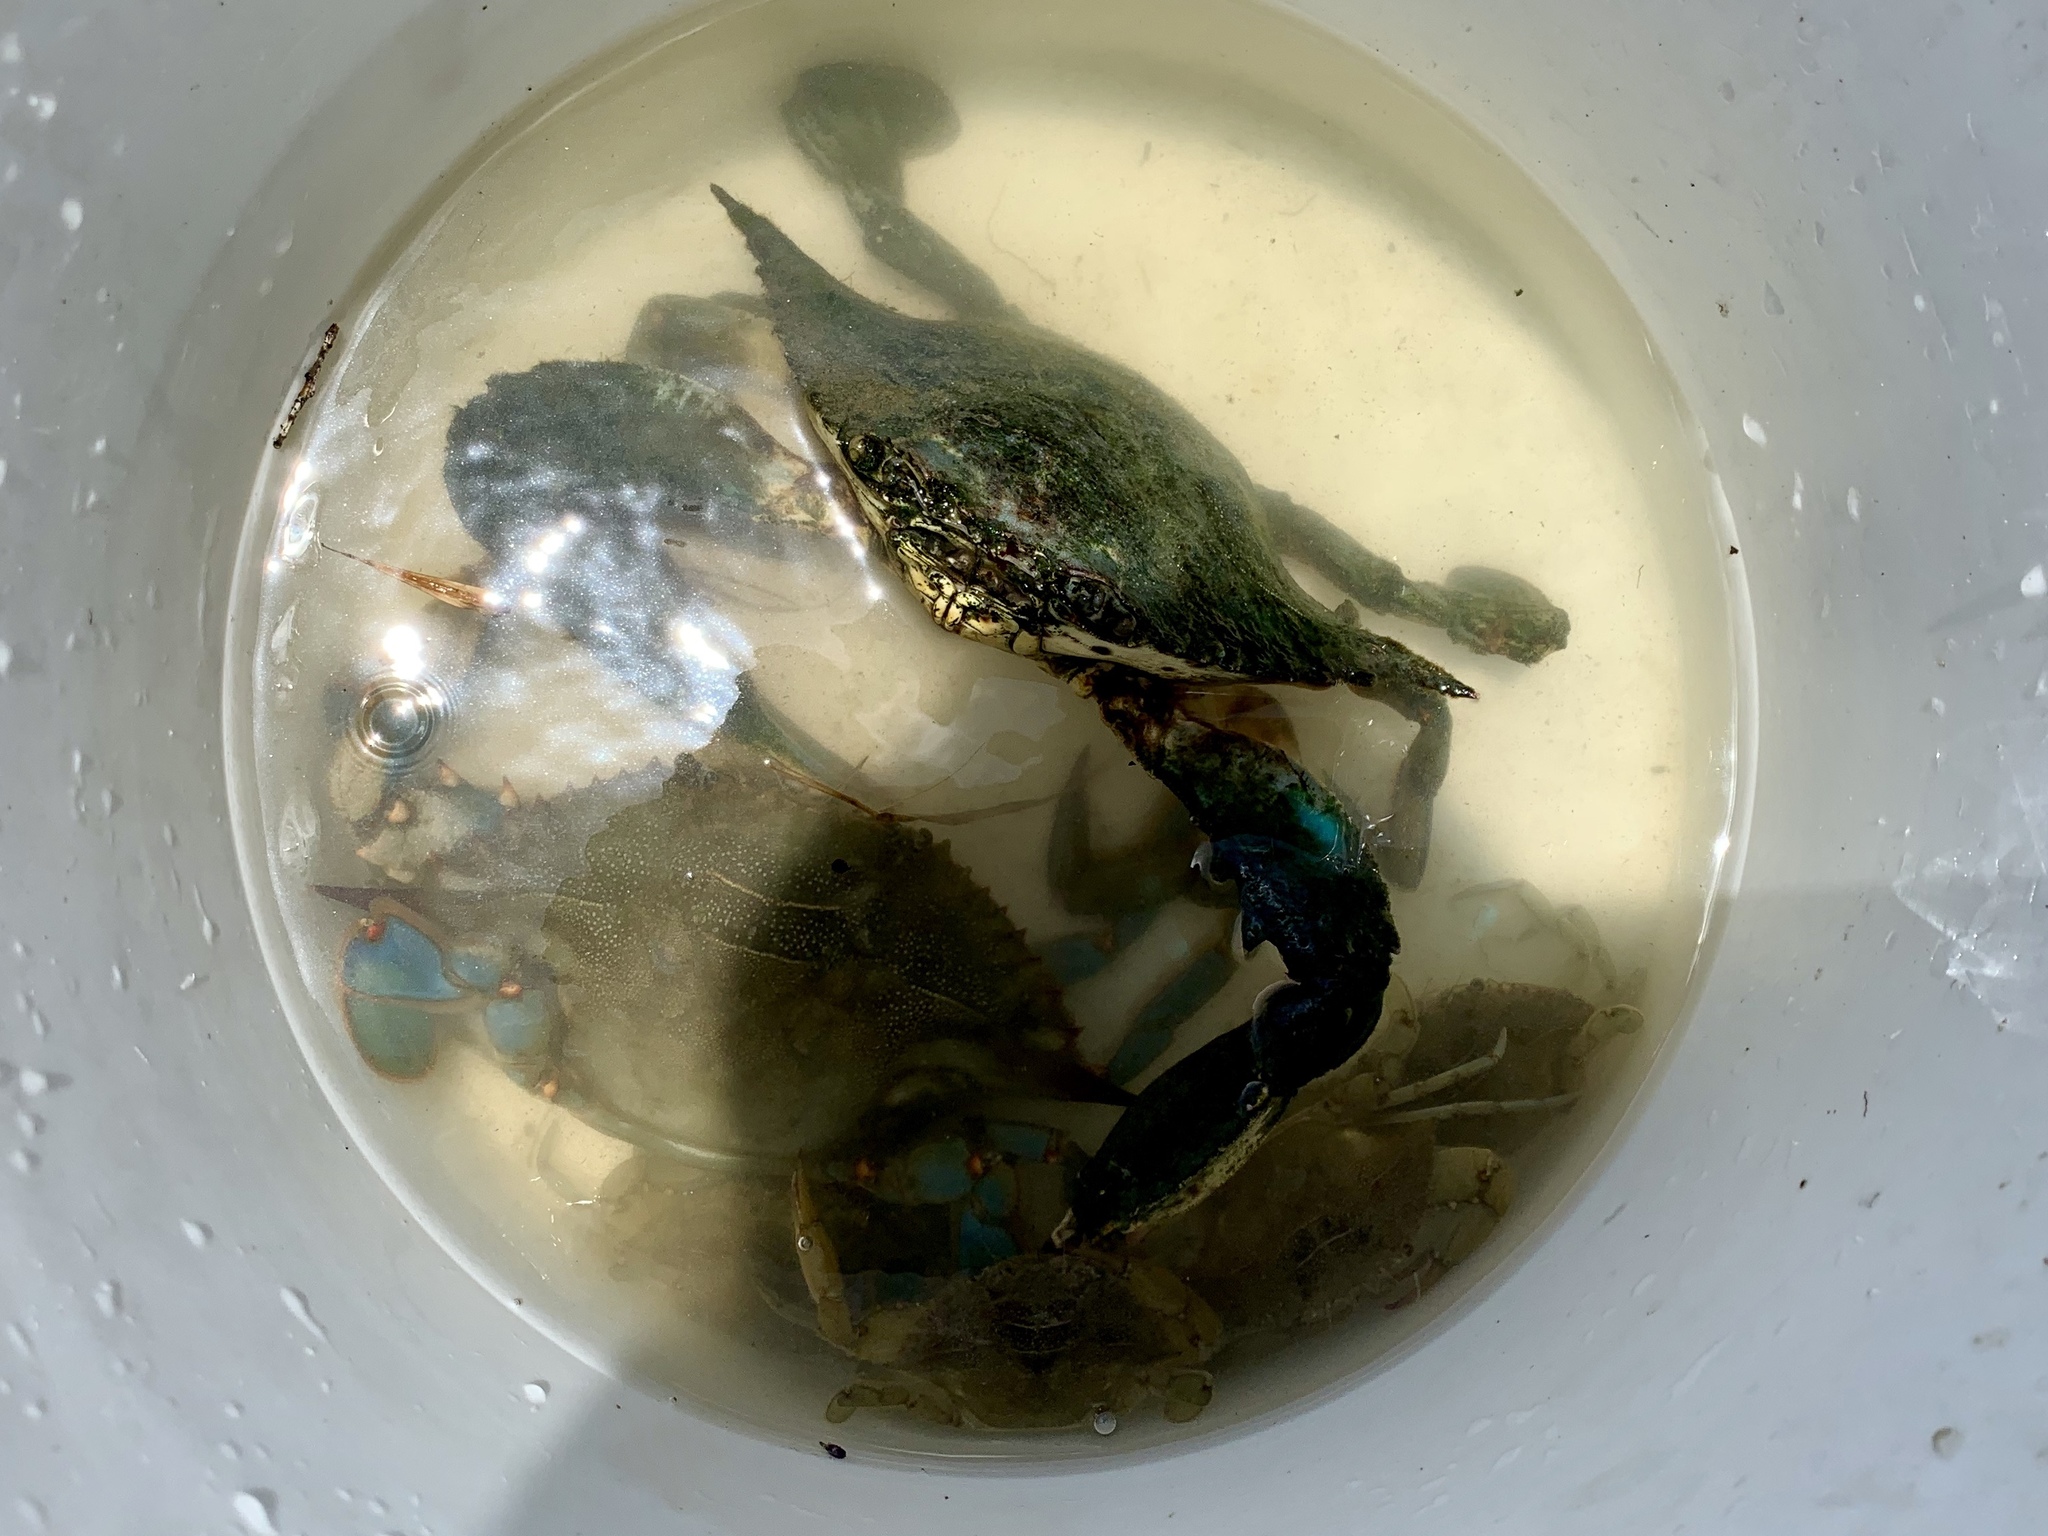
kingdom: Animalia
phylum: Arthropoda
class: Malacostraca
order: Decapoda
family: Portunidae
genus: Callinectes
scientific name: Callinectes sapidus
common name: Blue crab
